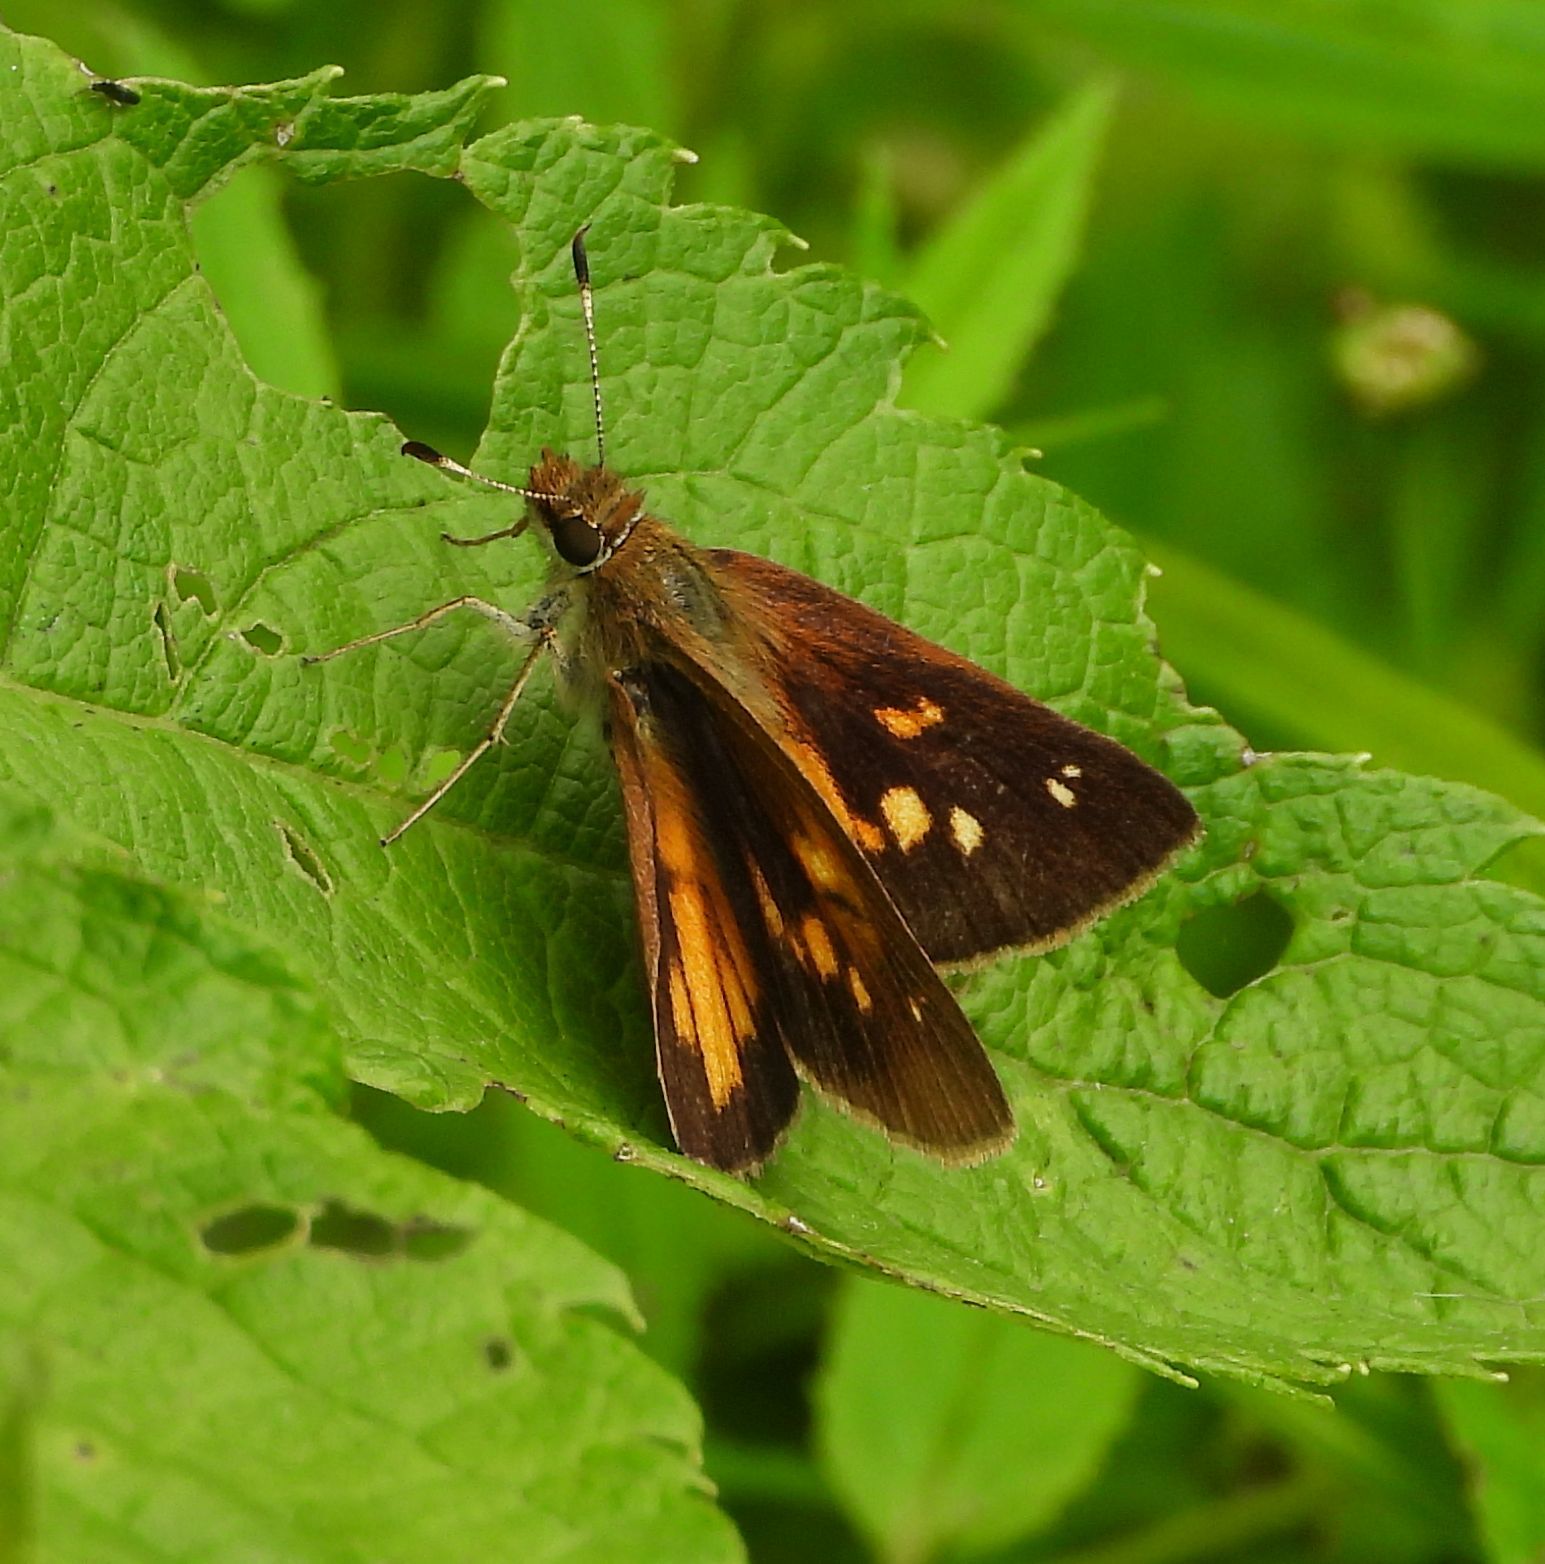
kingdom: Animalia
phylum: Arthropoda
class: Insecta
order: Lepidoptera
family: Hesperiidae
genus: Poanes
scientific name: Poanes viator
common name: Broad-winged skipper
